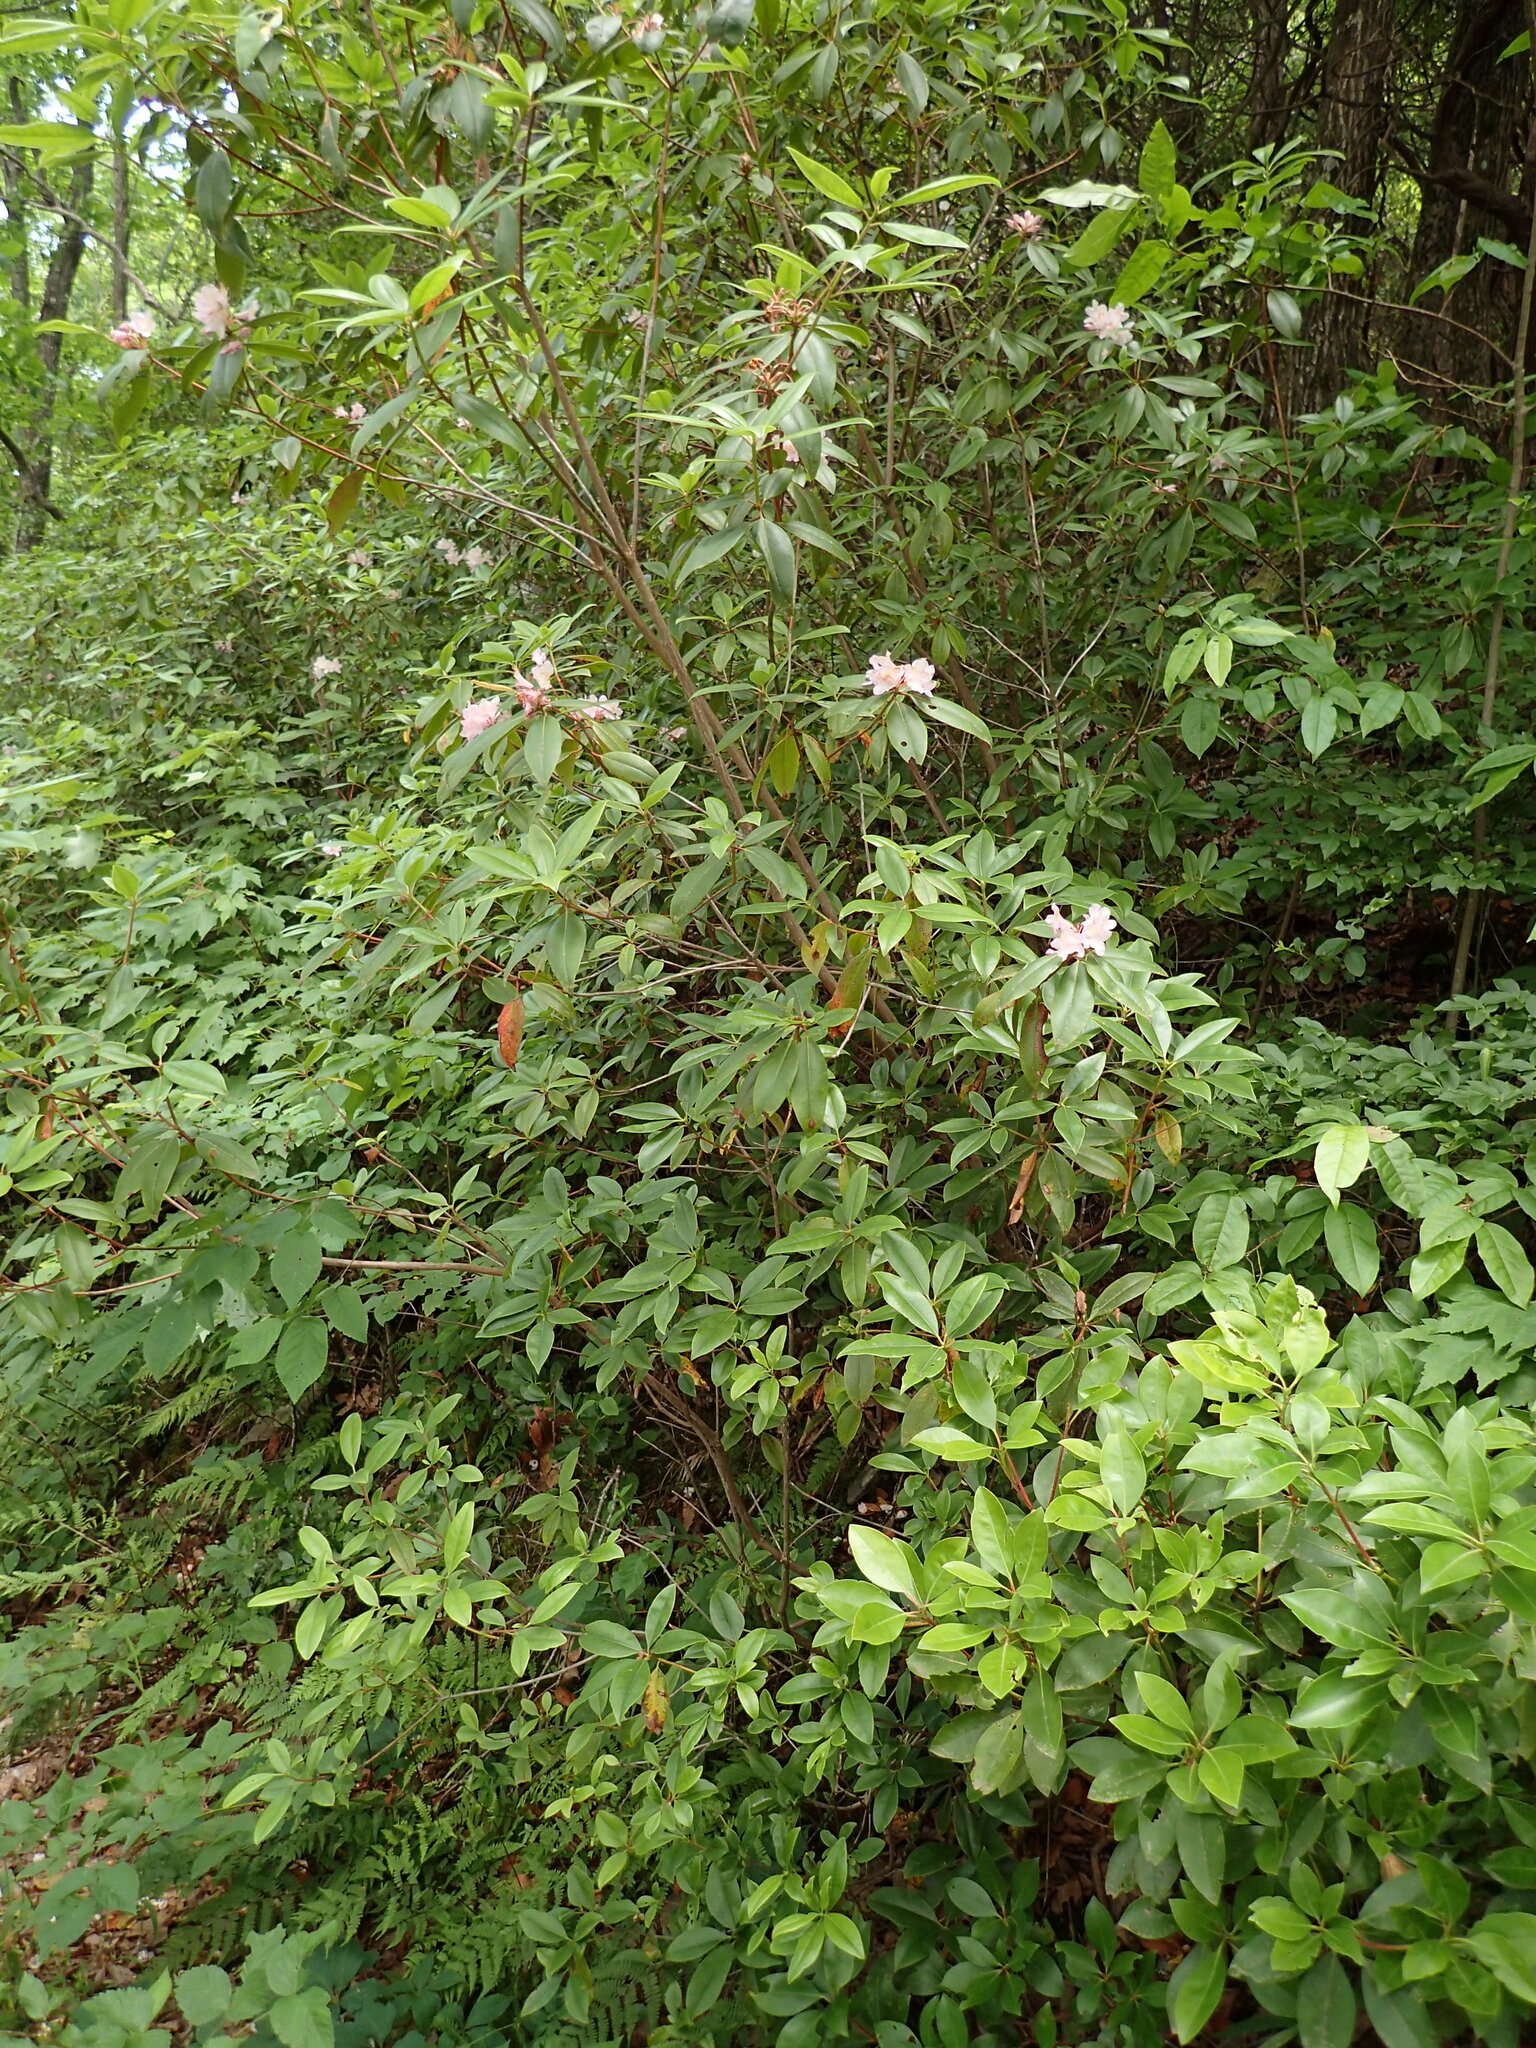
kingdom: Plantae
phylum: Tracheophyta
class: Magnoliopsida
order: Ericales
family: Ericaceae
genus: Rhododendron
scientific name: Rhododendron minus
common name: Piedmont rhododendron
